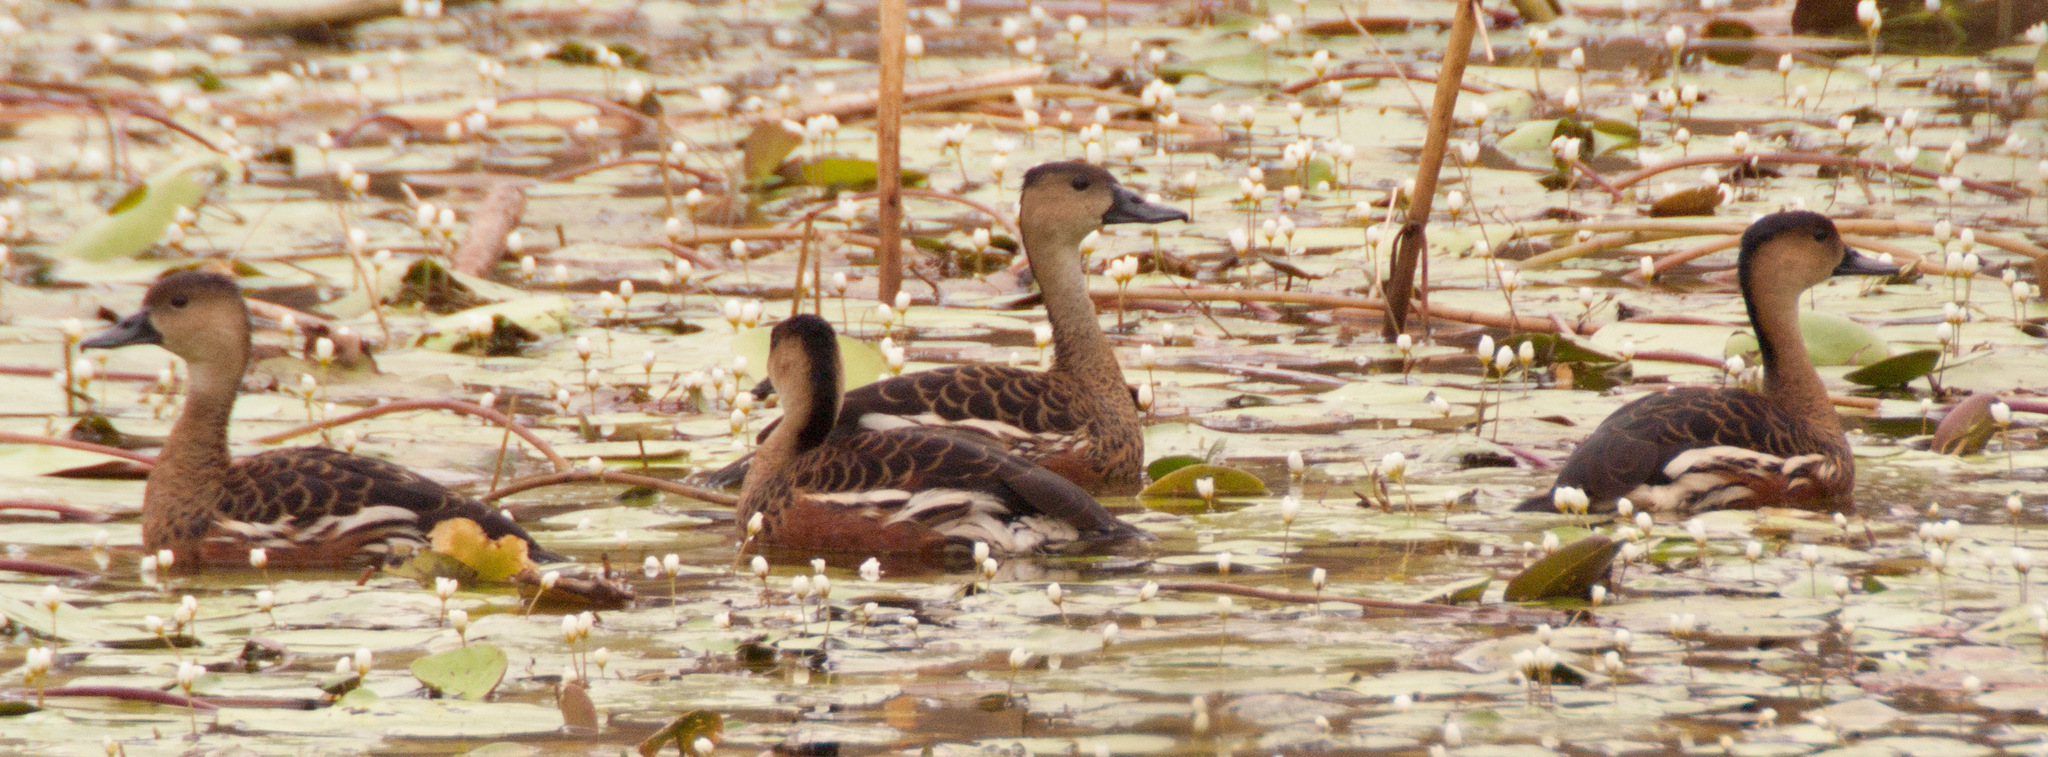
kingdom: Animalia
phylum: Chordata
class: Aves
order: Anseriformes
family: Anatidae
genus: Dendrocygna
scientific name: Dendrocygna arcuata
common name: Wandering whistling-duck
